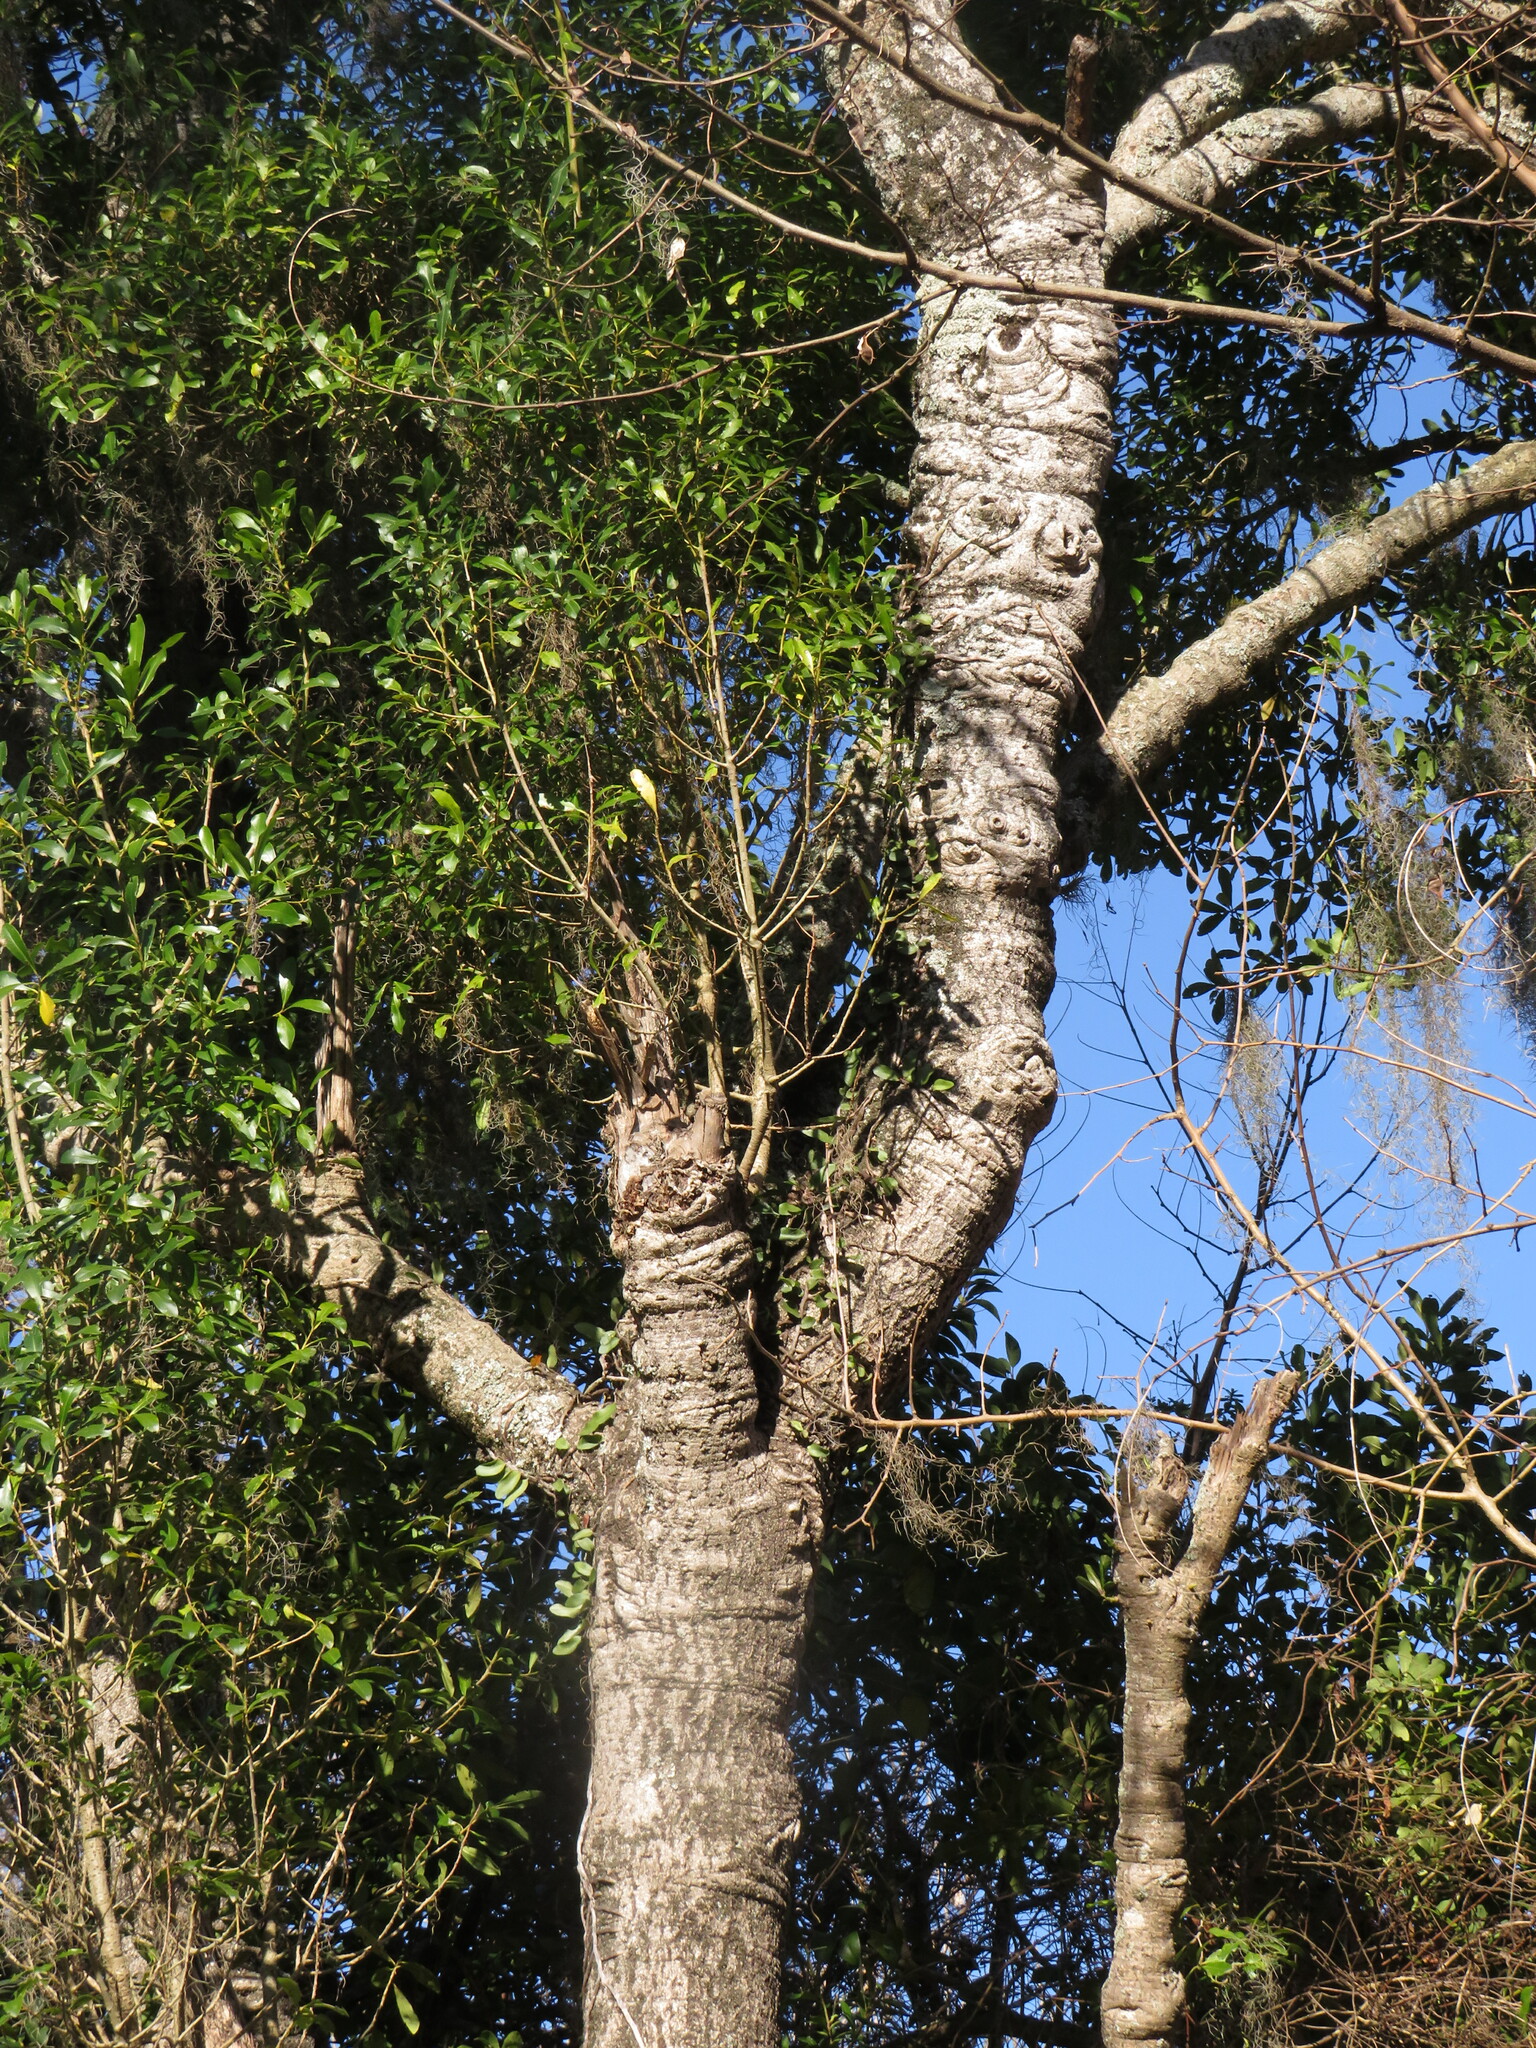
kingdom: Plantae
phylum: Tracheophyta
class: Magnoliopsida
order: Ericales
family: Primulaceae
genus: Myrsine
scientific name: Myrsine laetevirens
